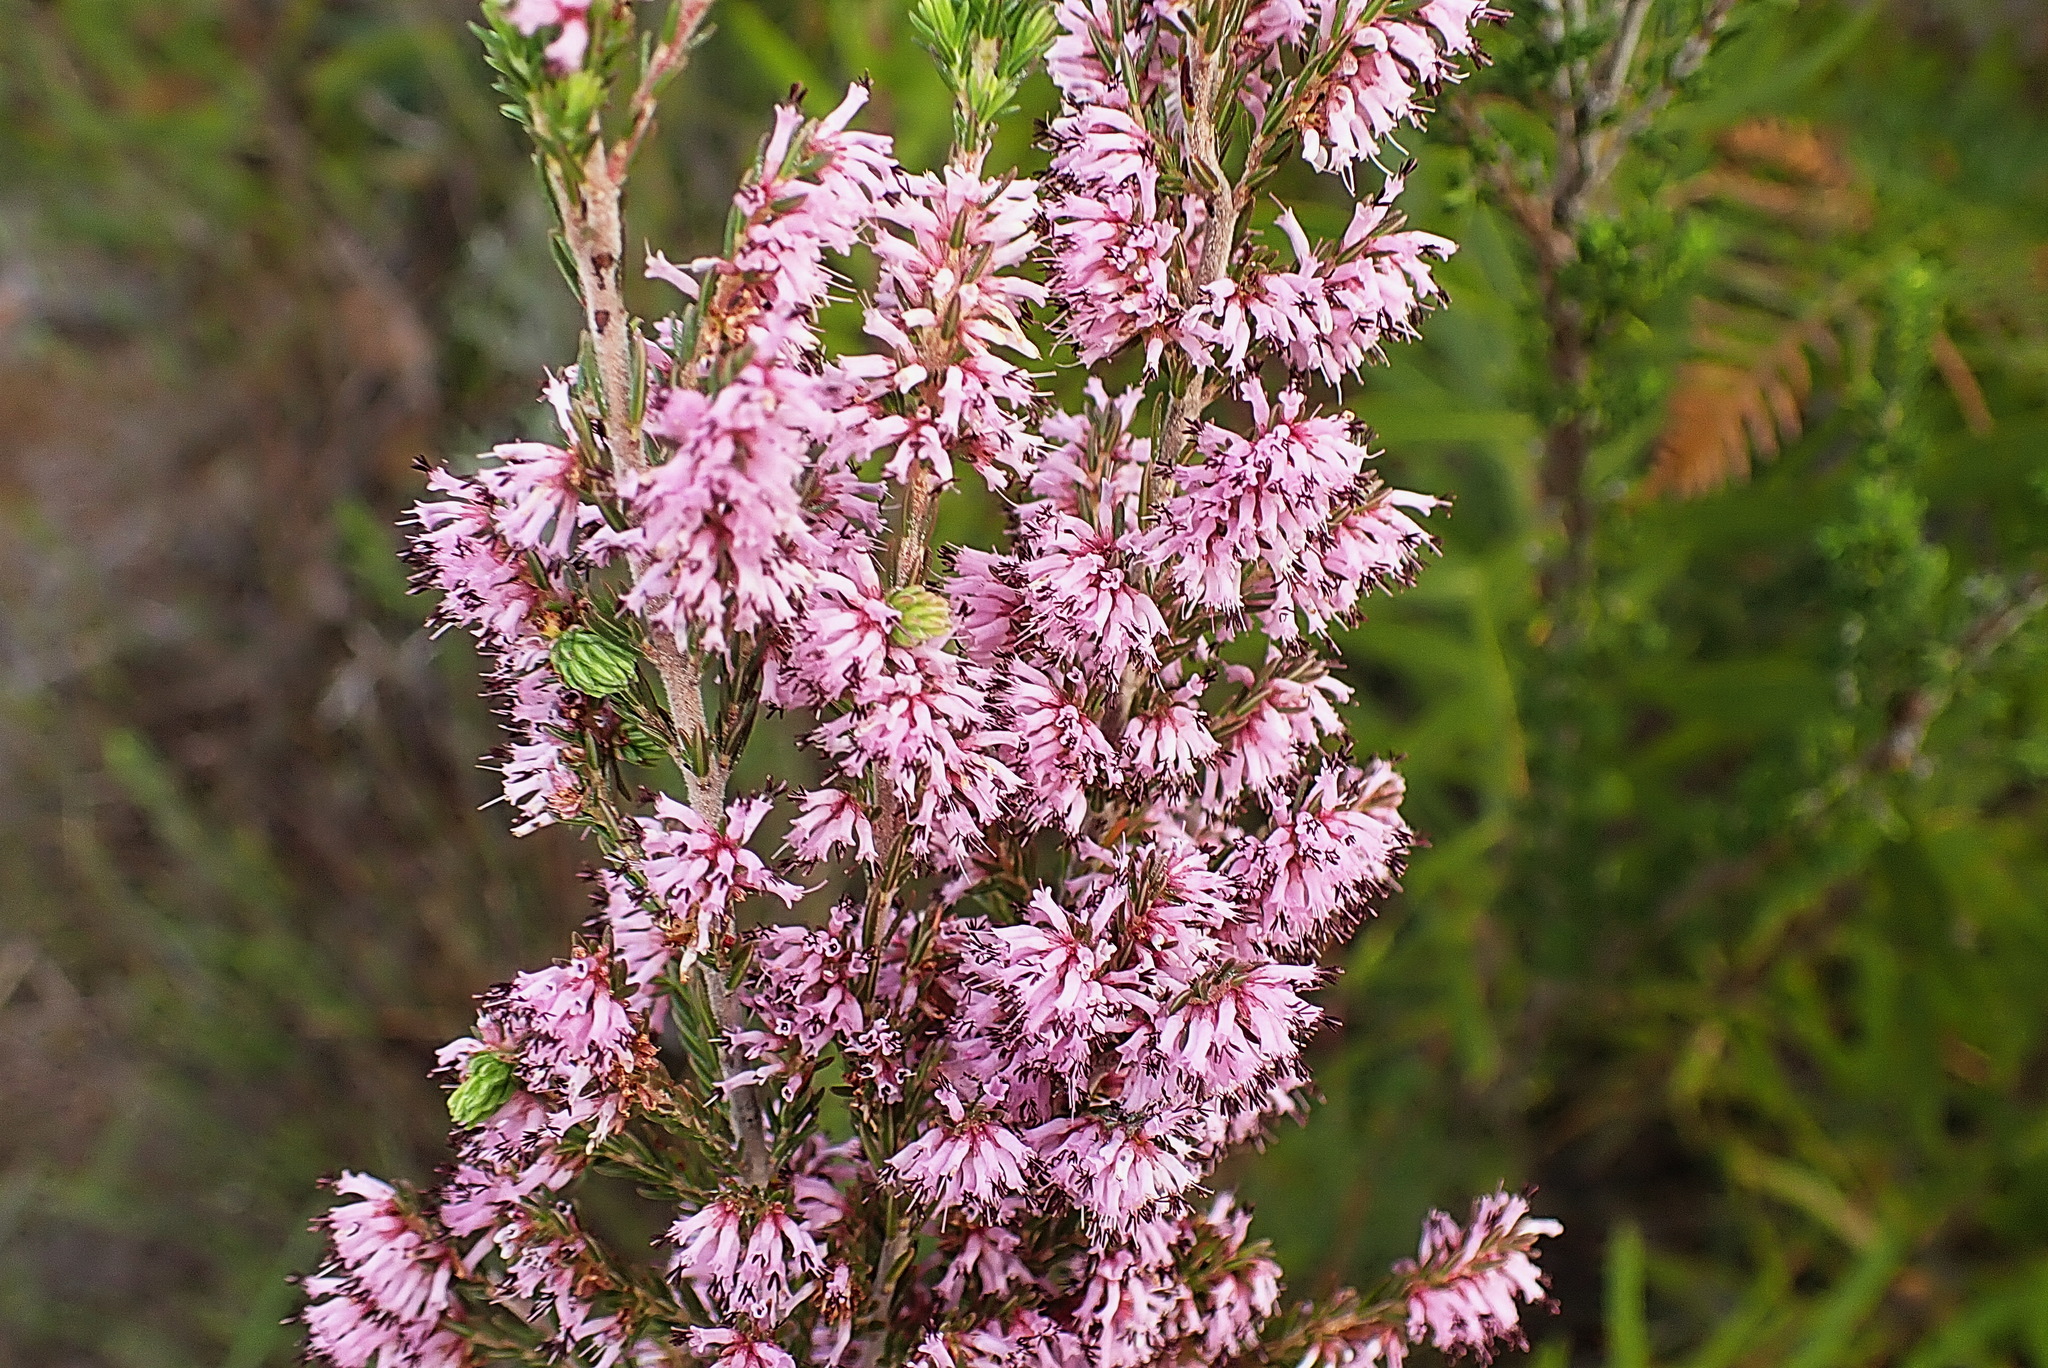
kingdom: Plantae
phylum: Tracheophyta
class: Magnoliopsida
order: Ericales
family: Ericaceae
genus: Erica
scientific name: Erica uberiflora
